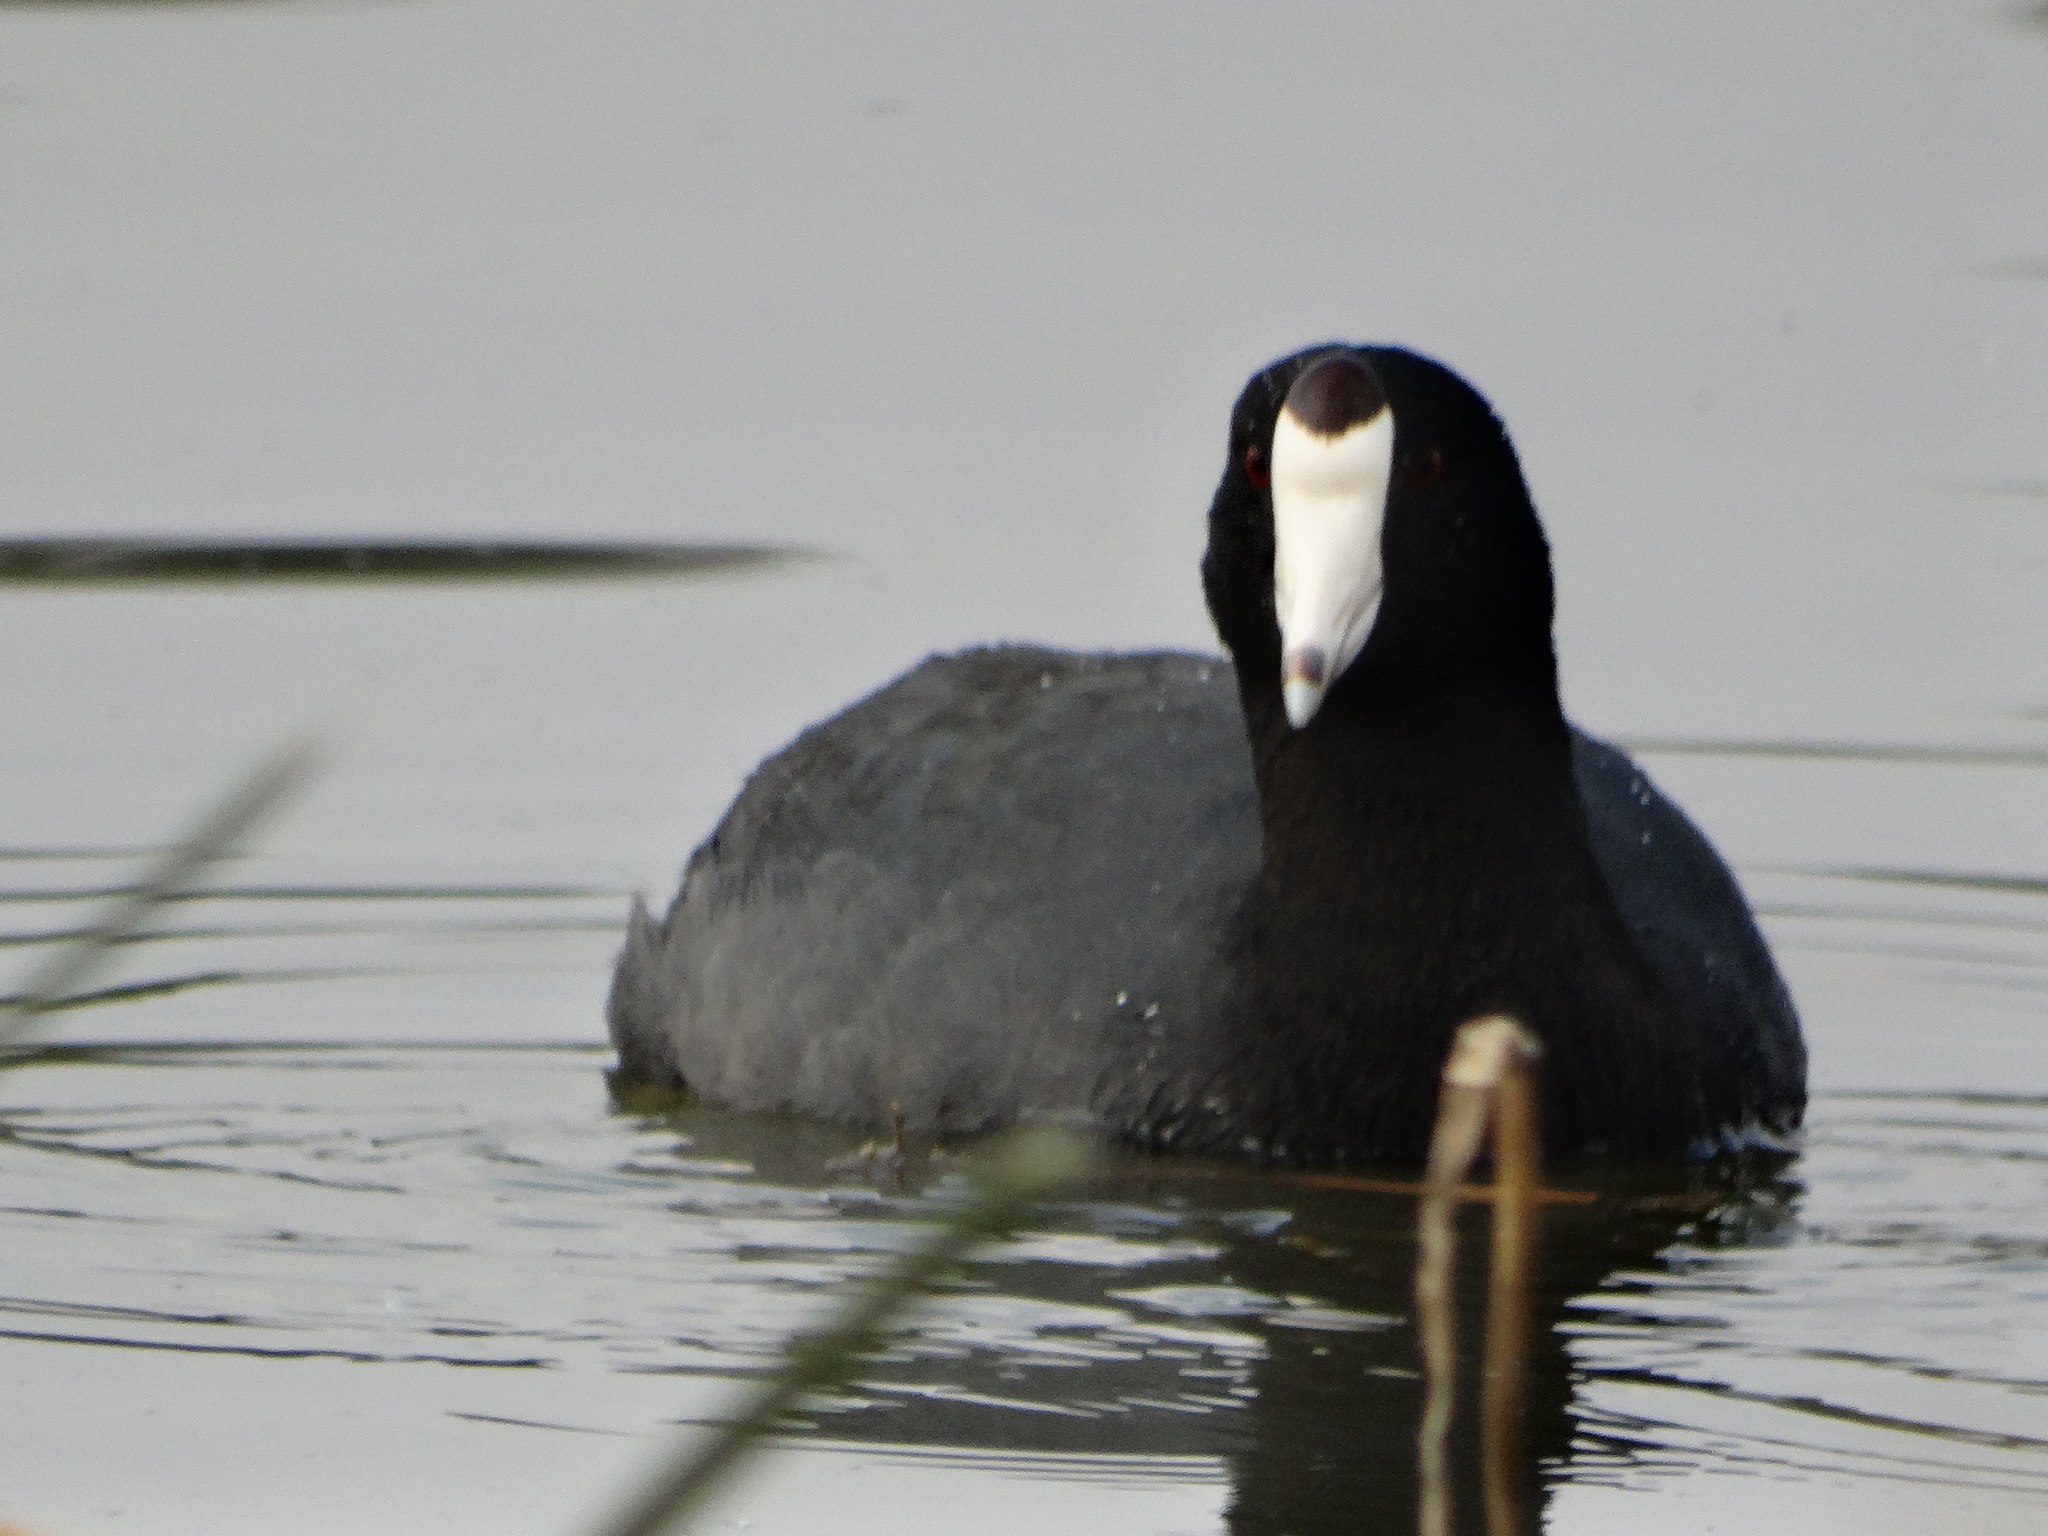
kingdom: Animalia
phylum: Chordata
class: Aves
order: Gruiformes
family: Rallidae
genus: Fulica
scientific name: Fulica americana
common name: American coot
